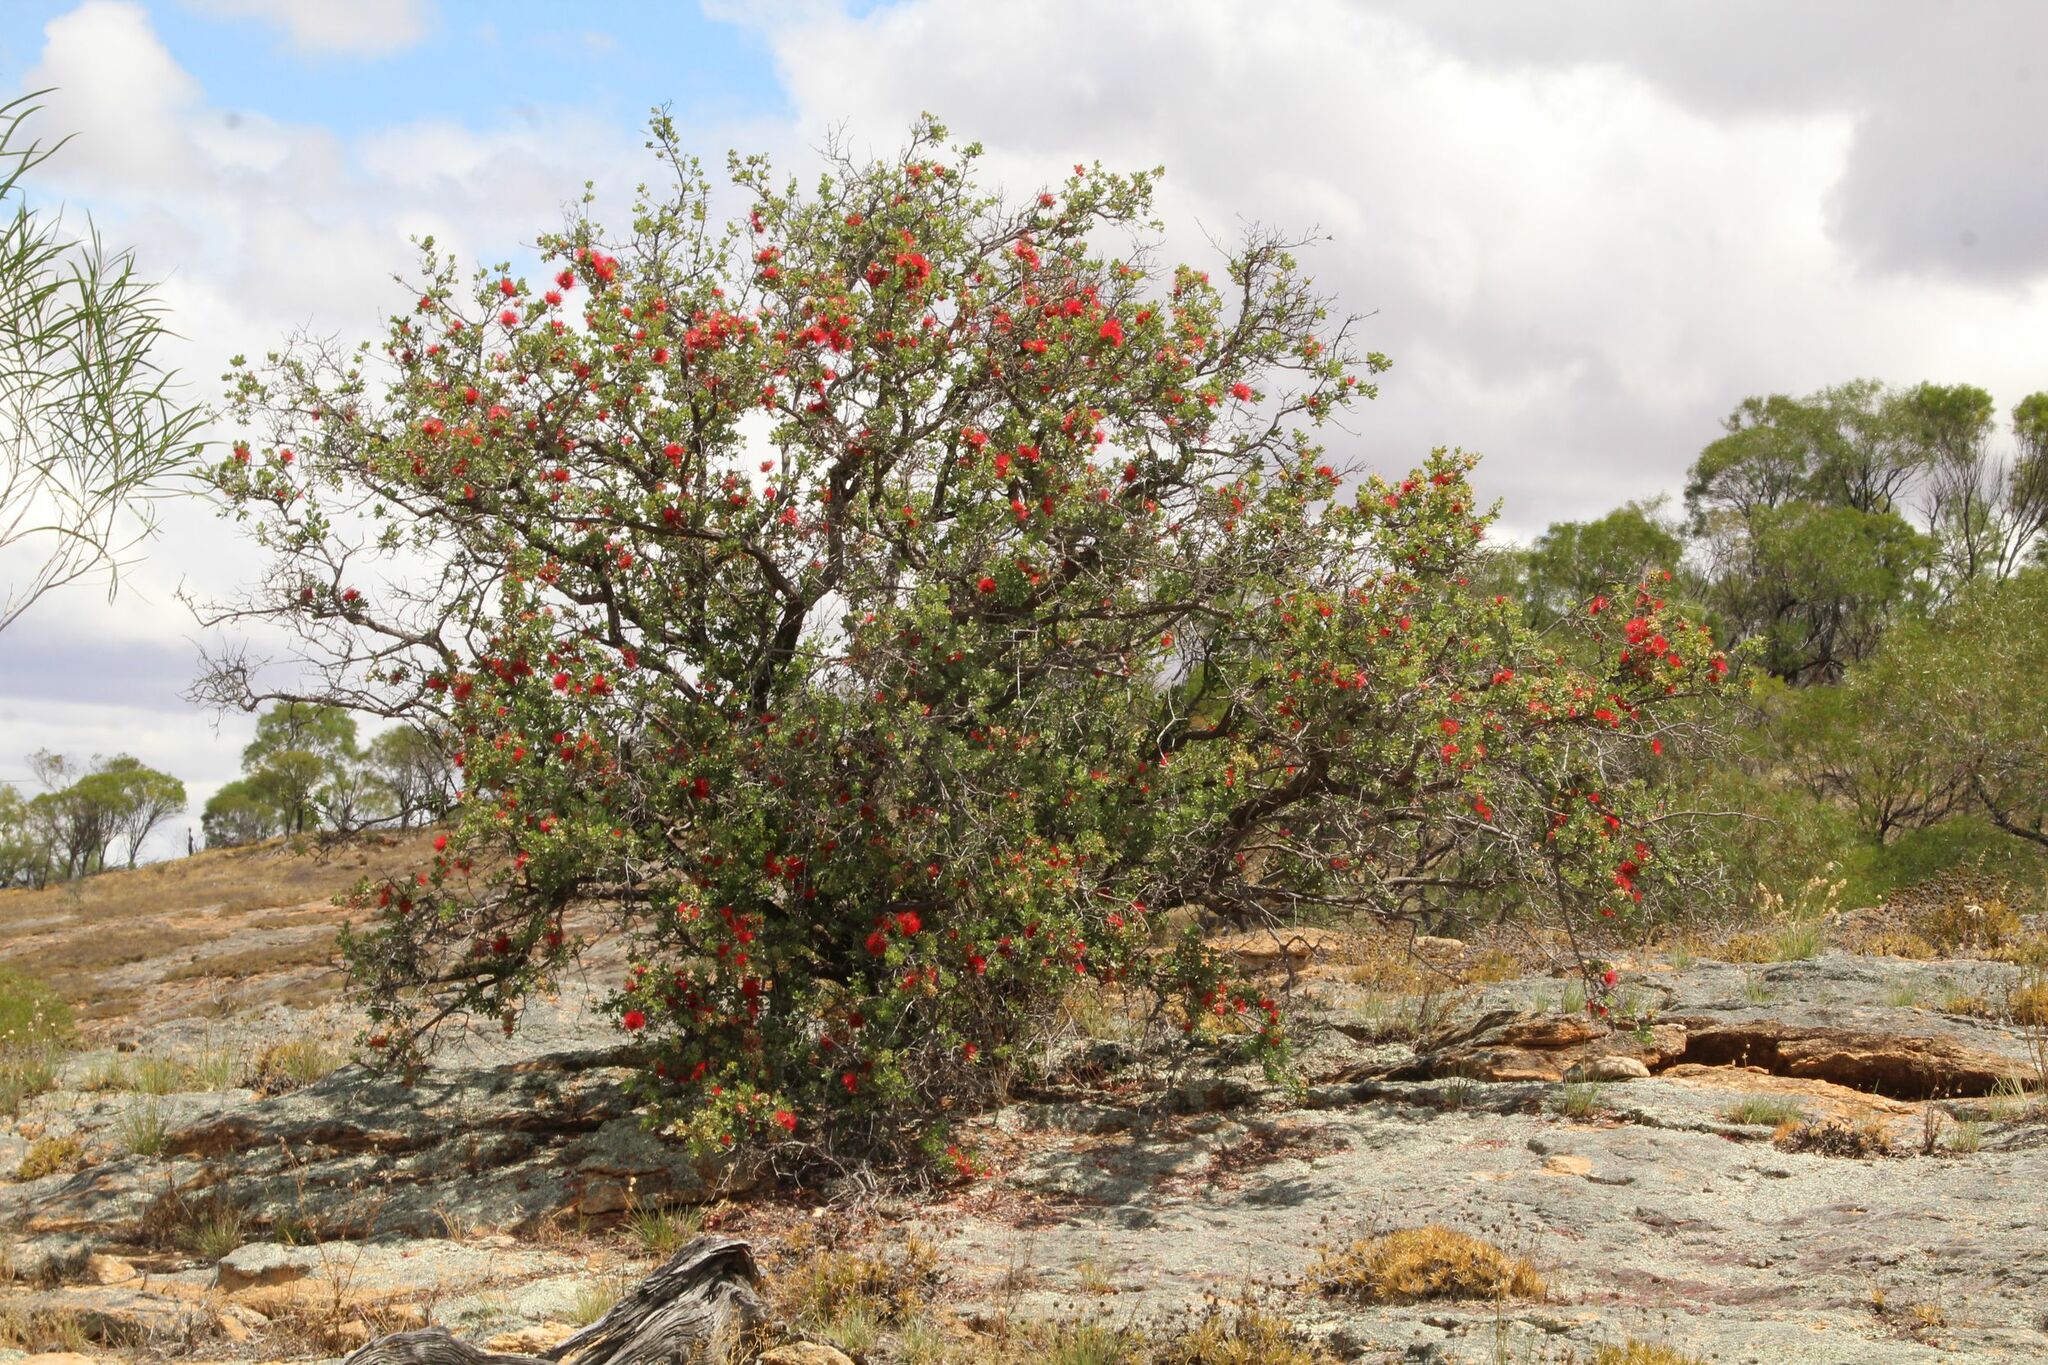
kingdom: Plantae
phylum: Tracheophyta
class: Magnoliopsida
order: Myrtales
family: Myrtaceae
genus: Kunzea
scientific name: Kunzea pulchella
